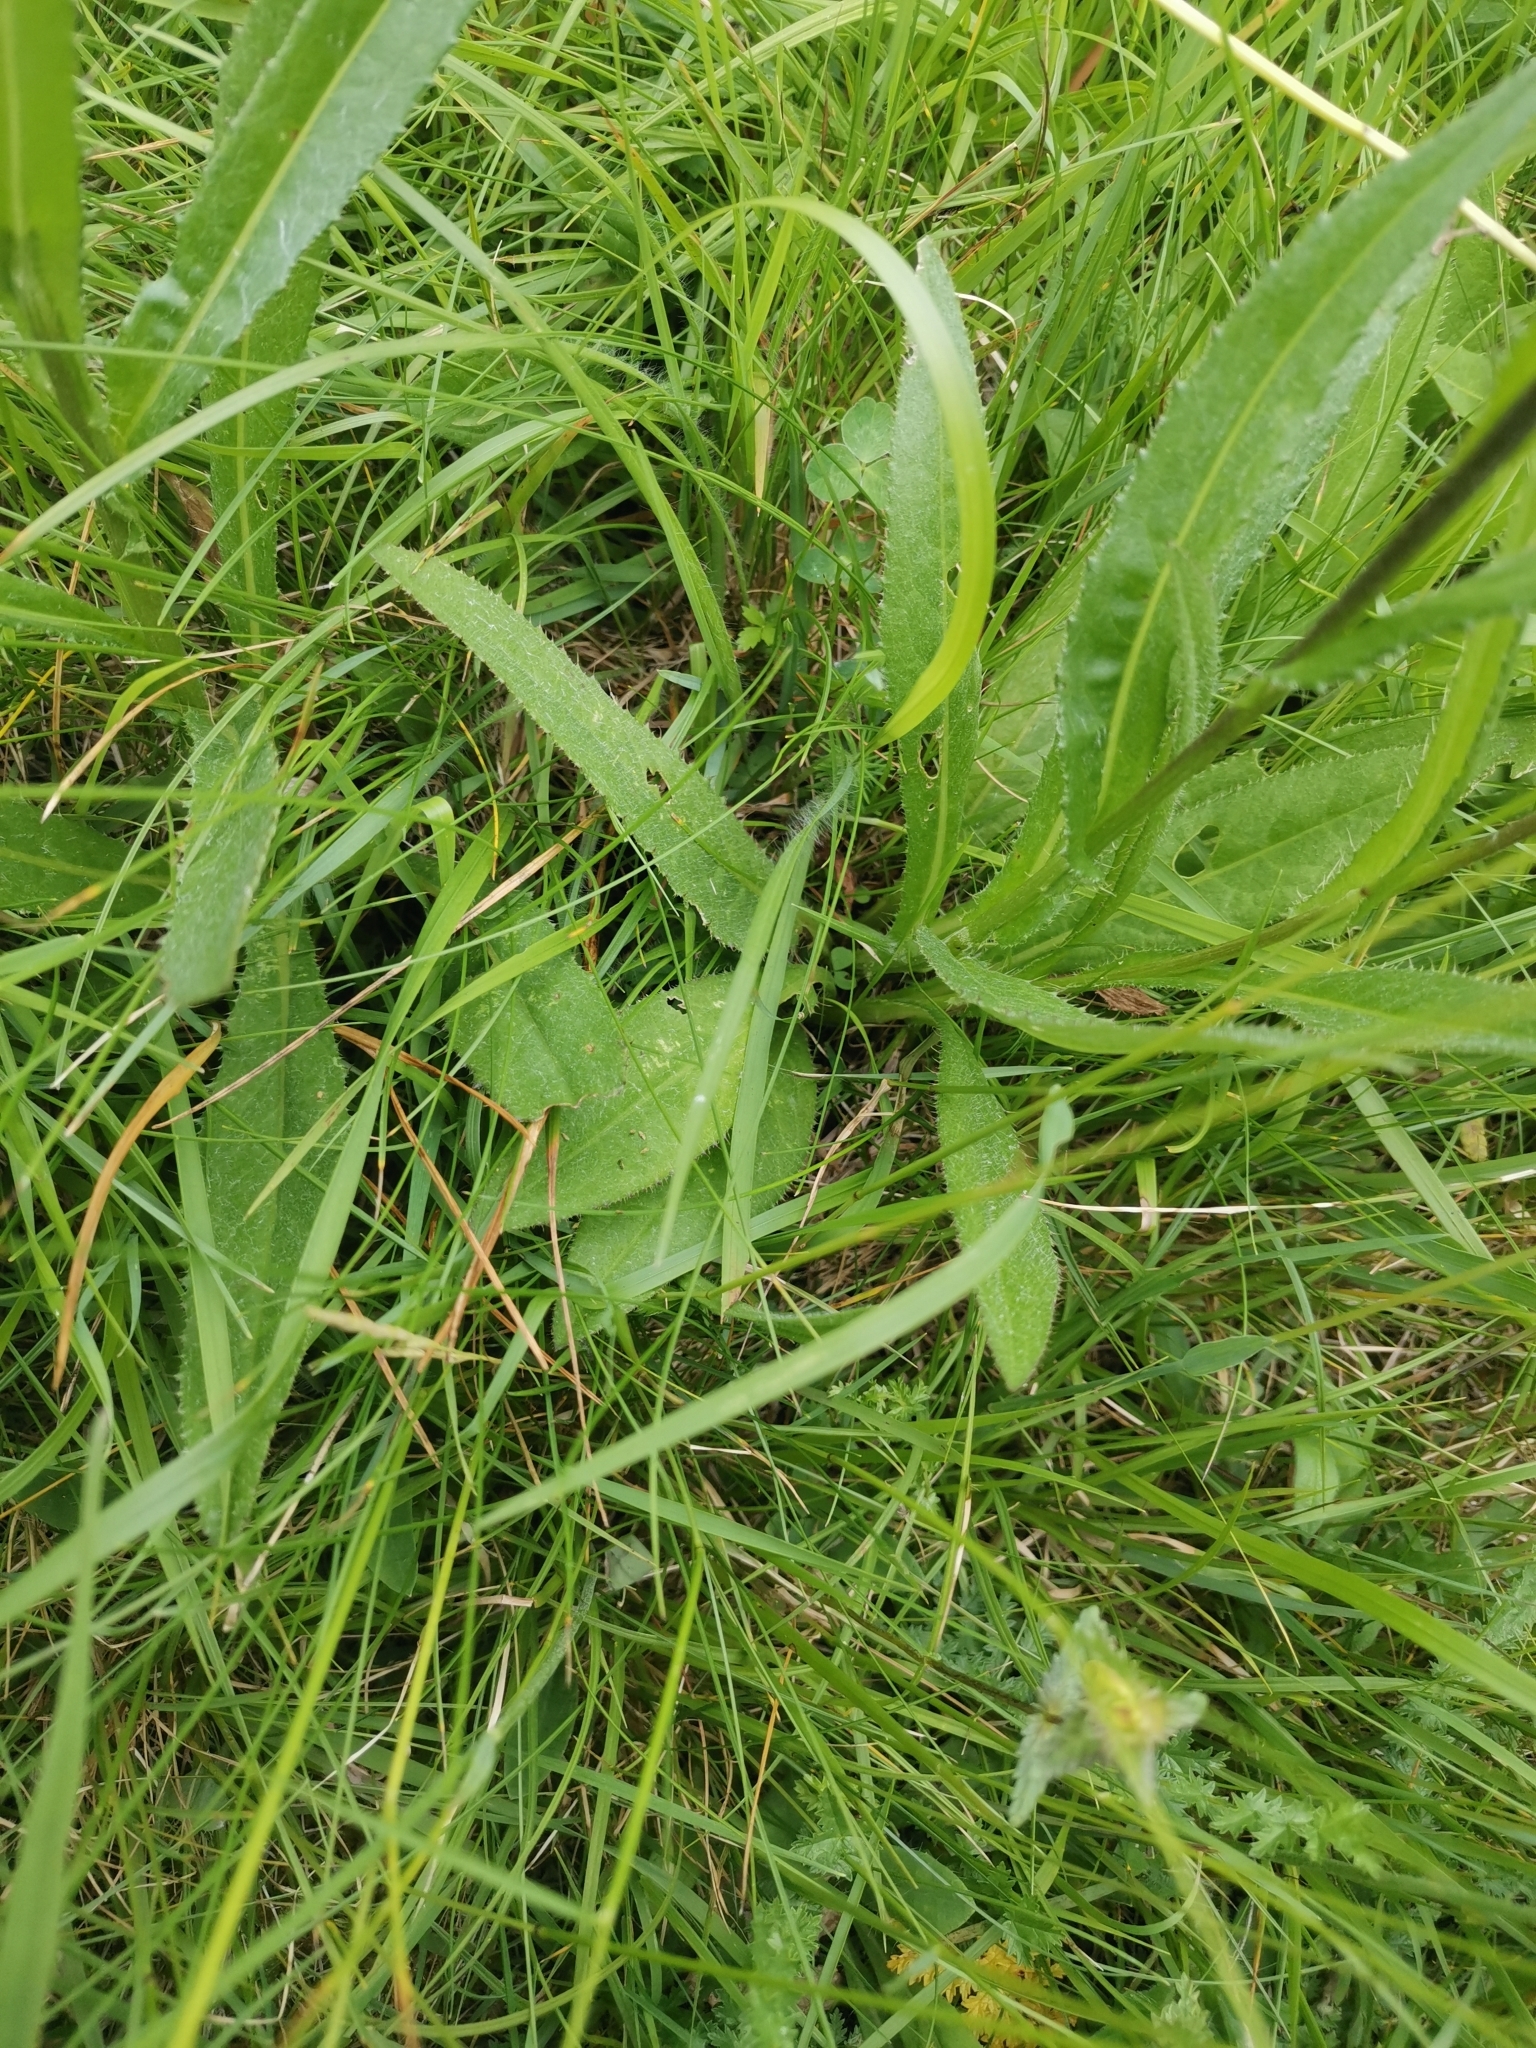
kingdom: Plantae
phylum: Tracheophyta
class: Magnoliopsida
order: Asterales
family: Asteraceae
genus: Cirsium
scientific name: Cirsium pannonicum
